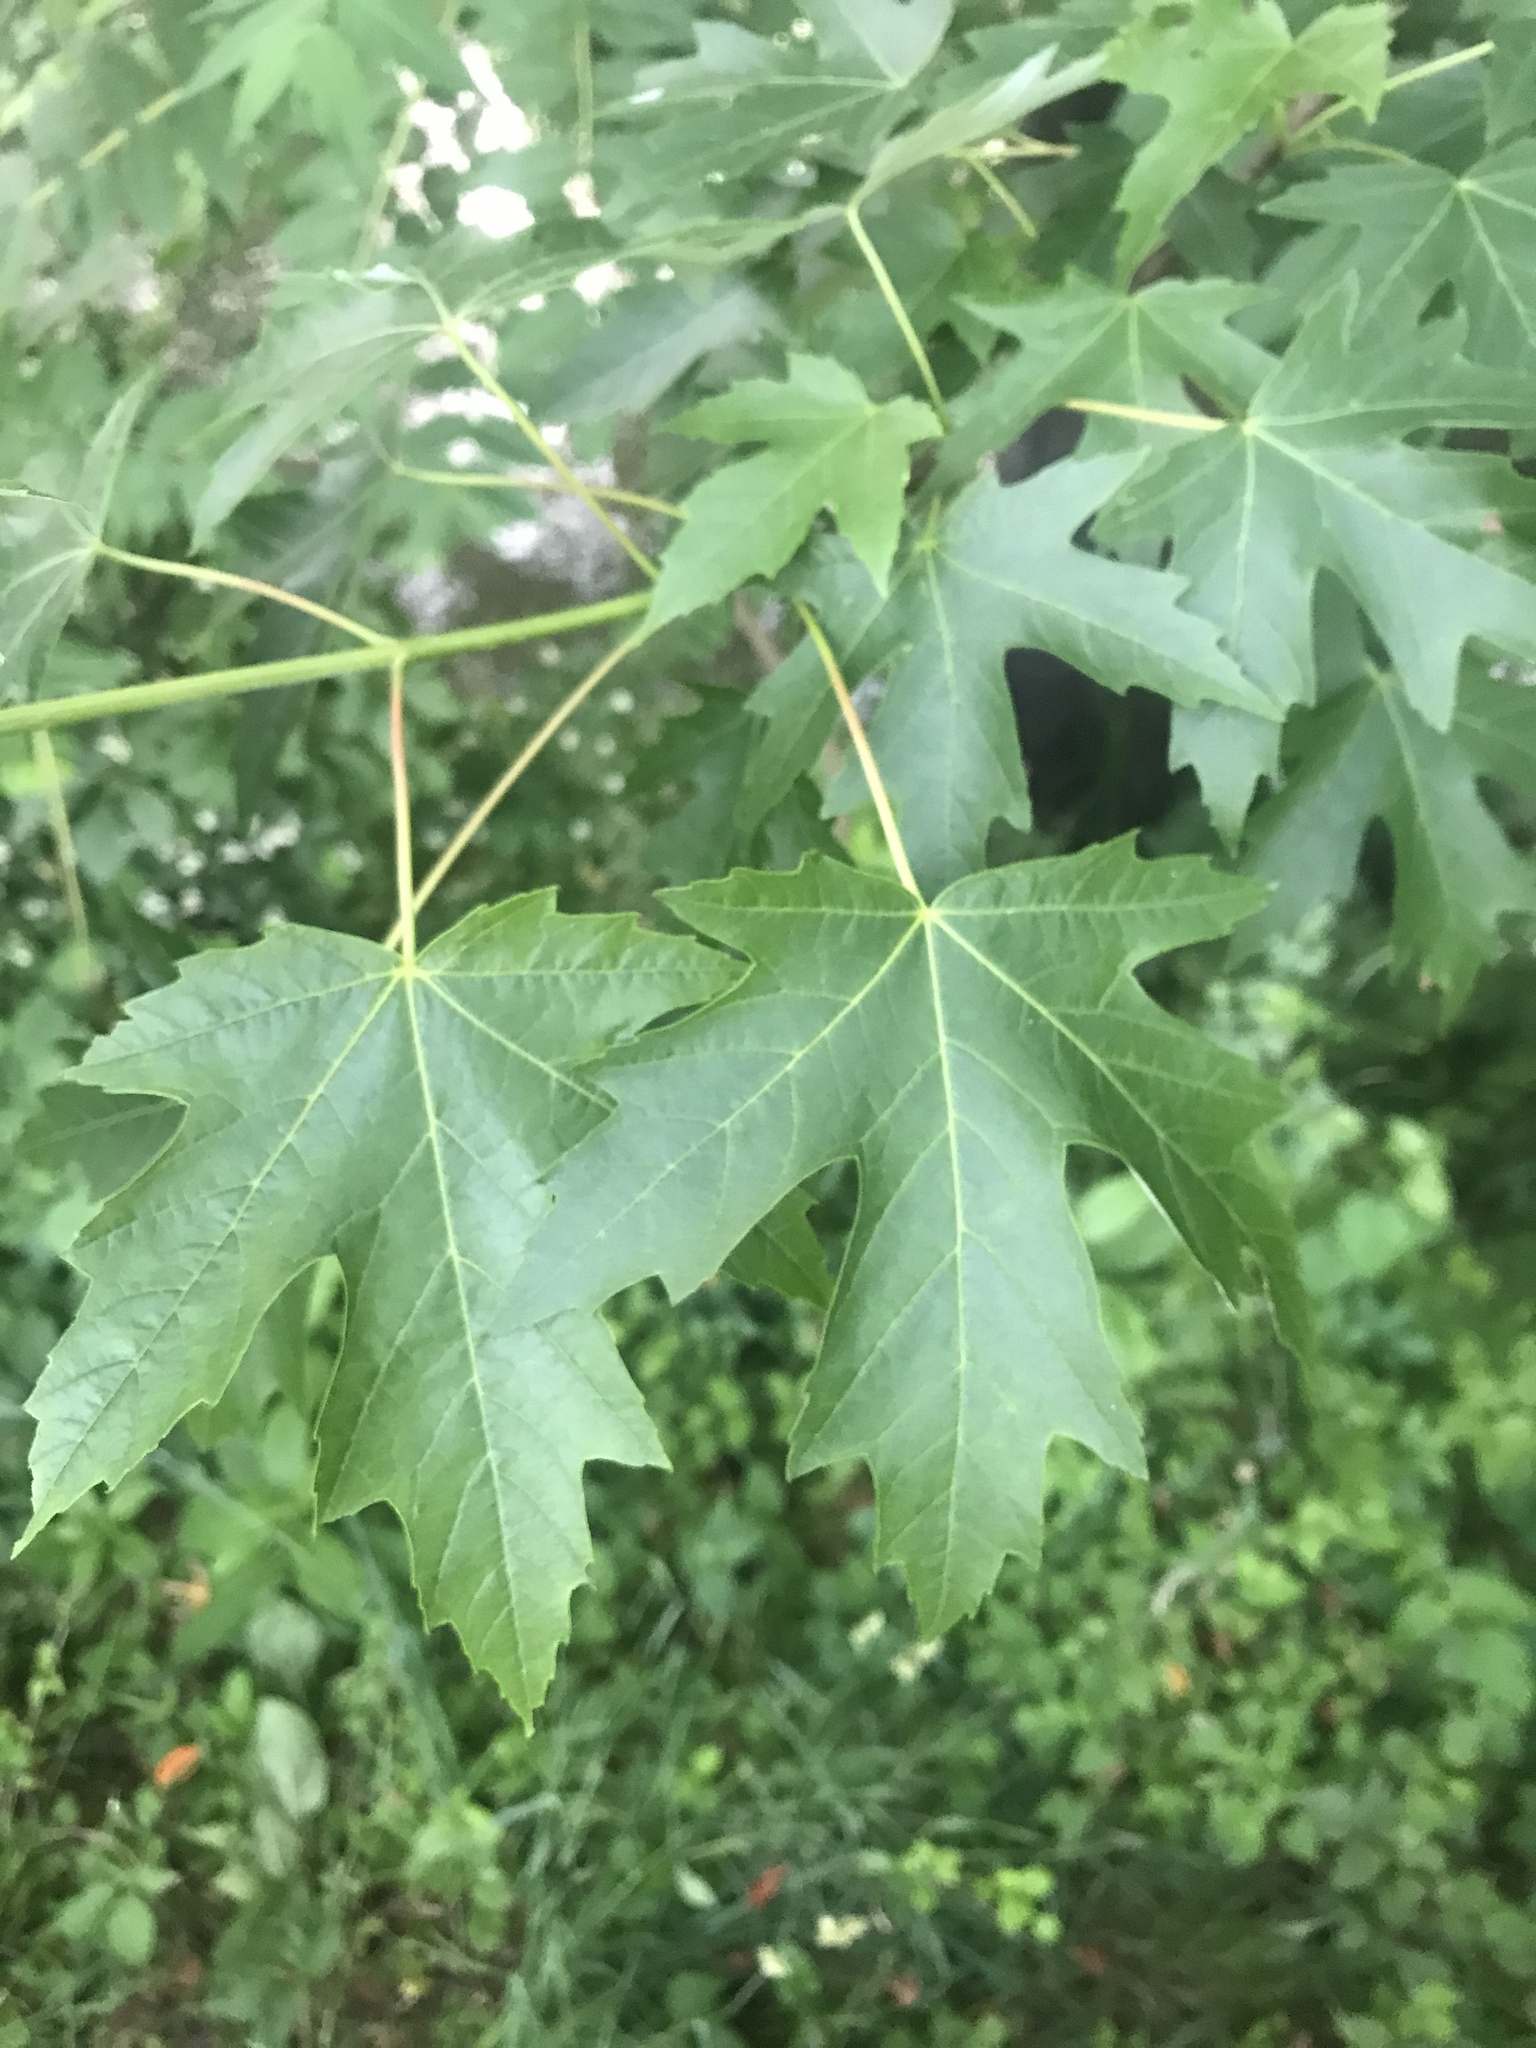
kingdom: Plantae
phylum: Tracheophyta
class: Magnoliopsida
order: Sapindales
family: Sapindaceae
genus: Acer
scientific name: Acer saccharinum
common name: Silver maple
